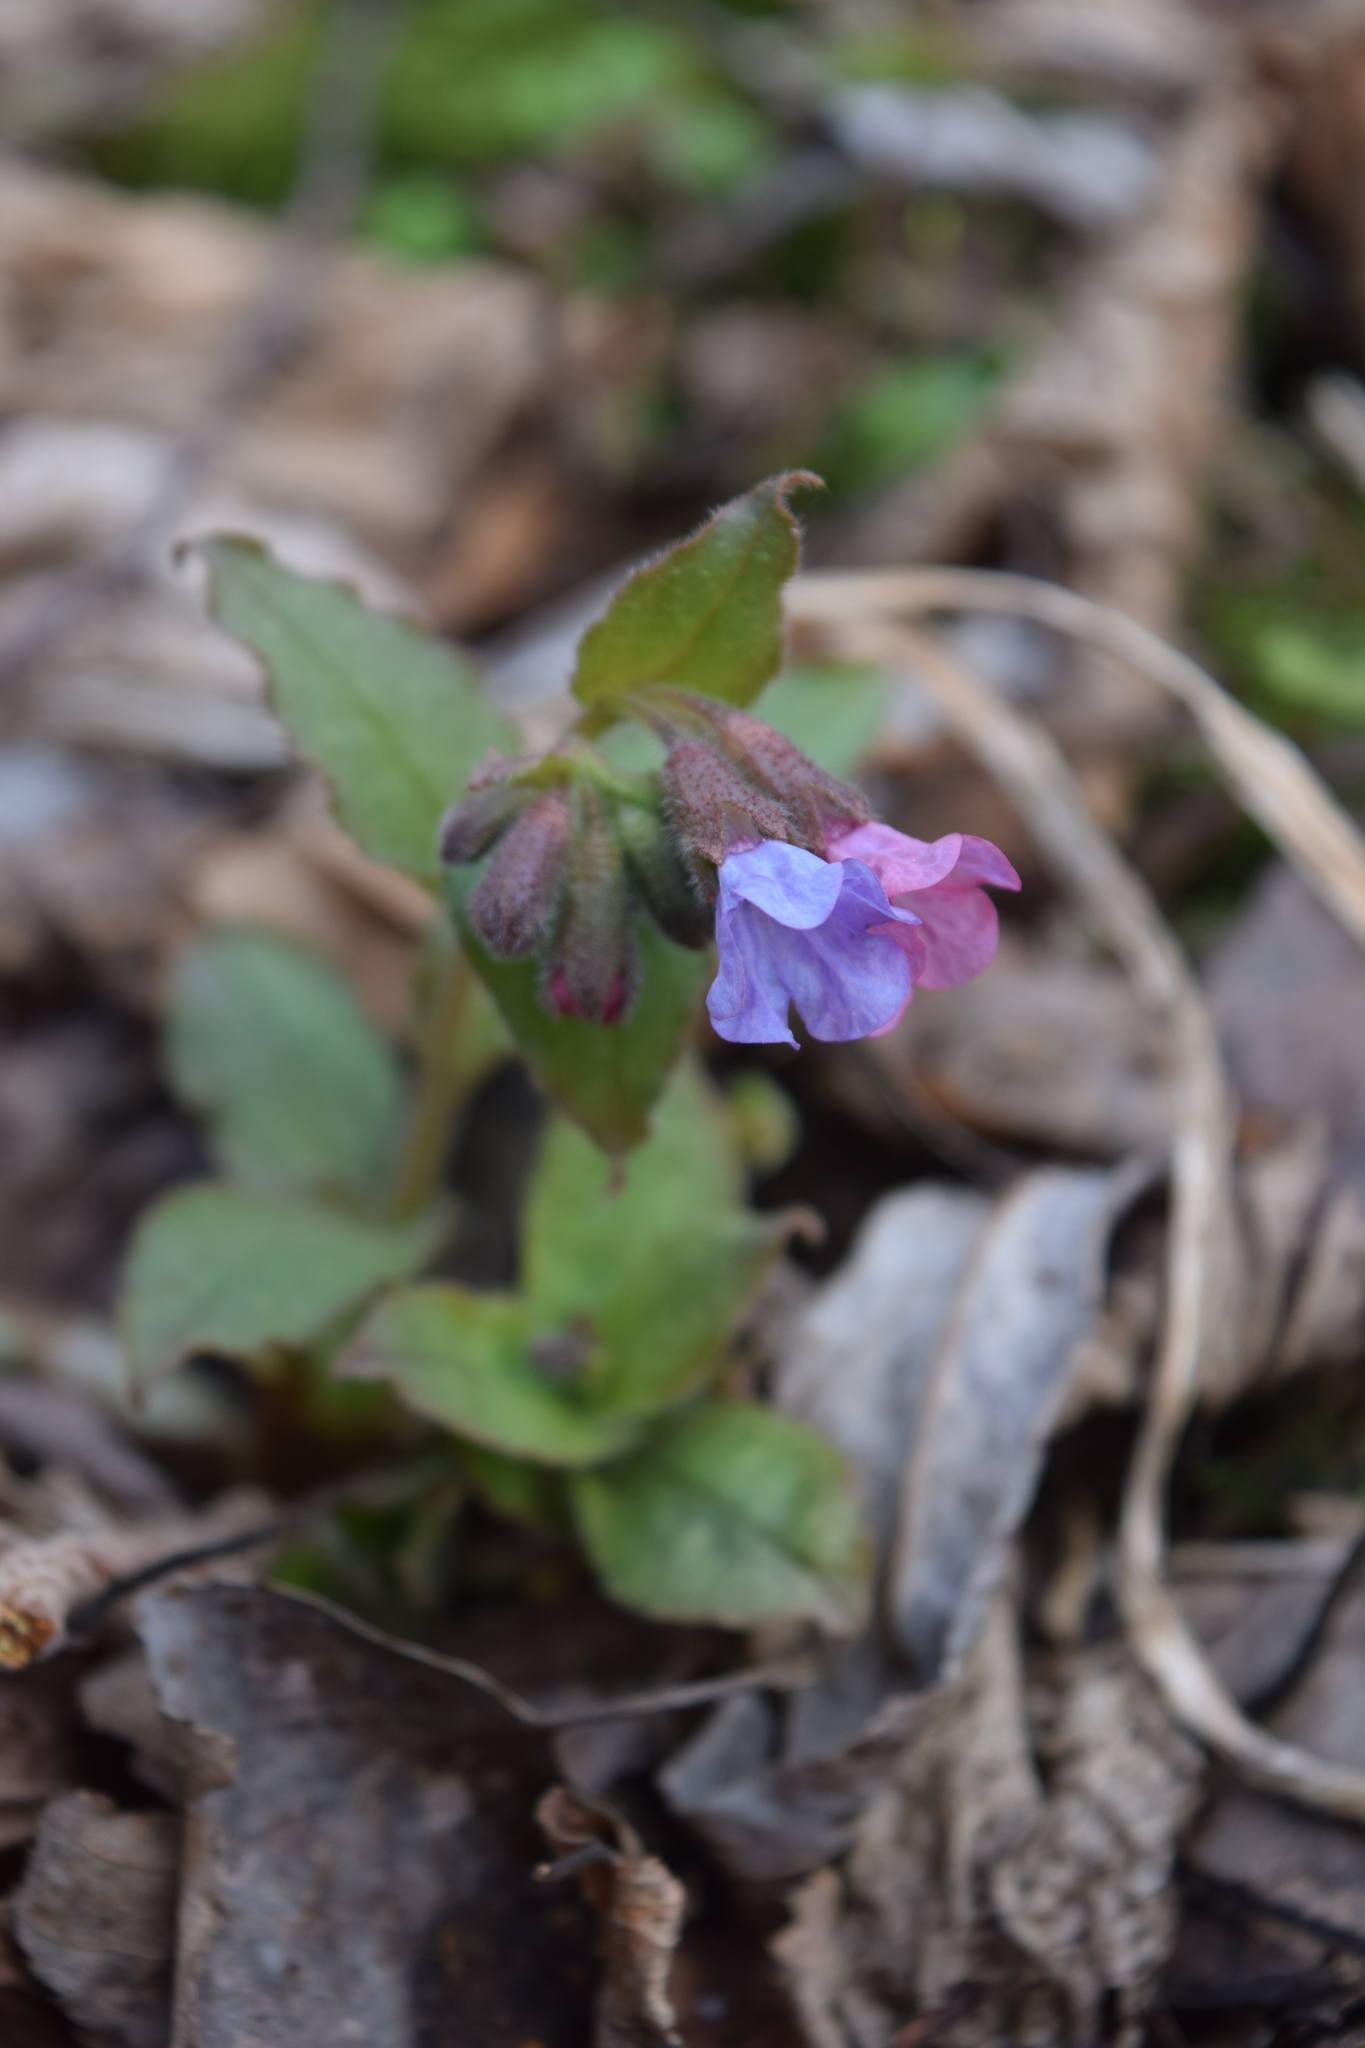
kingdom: Plantae
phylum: Tracheophyta
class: Magnoliopsida
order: Boraginales
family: Boraginaceae
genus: Pulmonaria
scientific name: Pulmonaria obscura
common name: Suffolk lungwort
